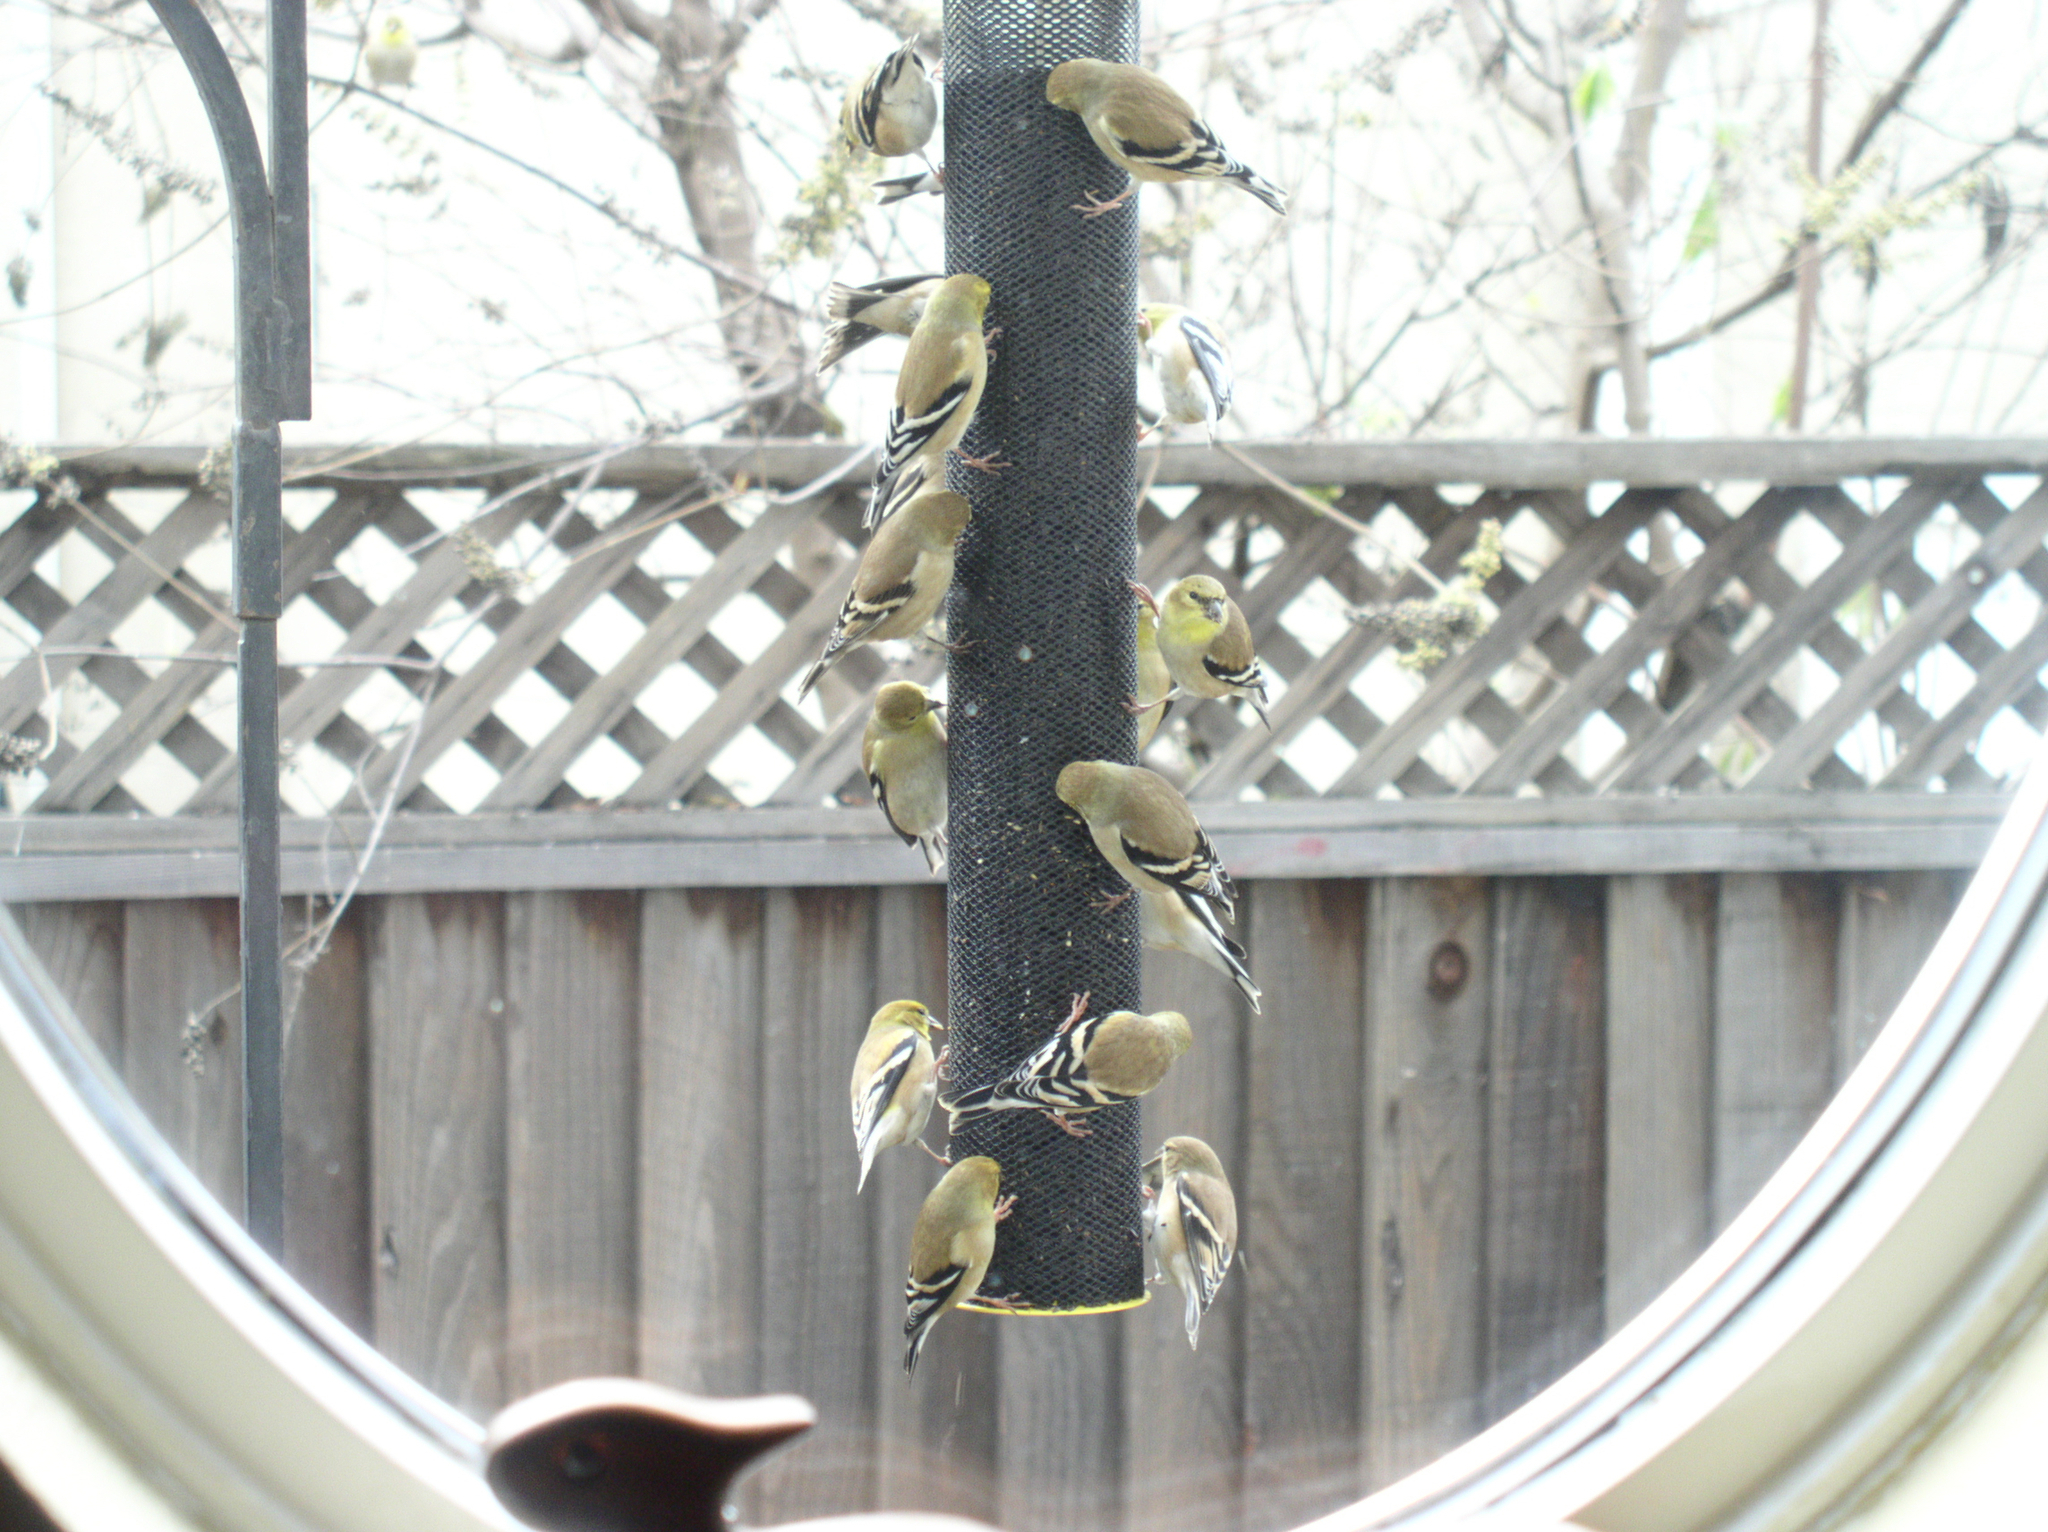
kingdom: Animalia
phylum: Chordata
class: Aves
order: Passeriformes
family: Fringillidae
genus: Spinus
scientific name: Spinus tristis
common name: American goldfinch
